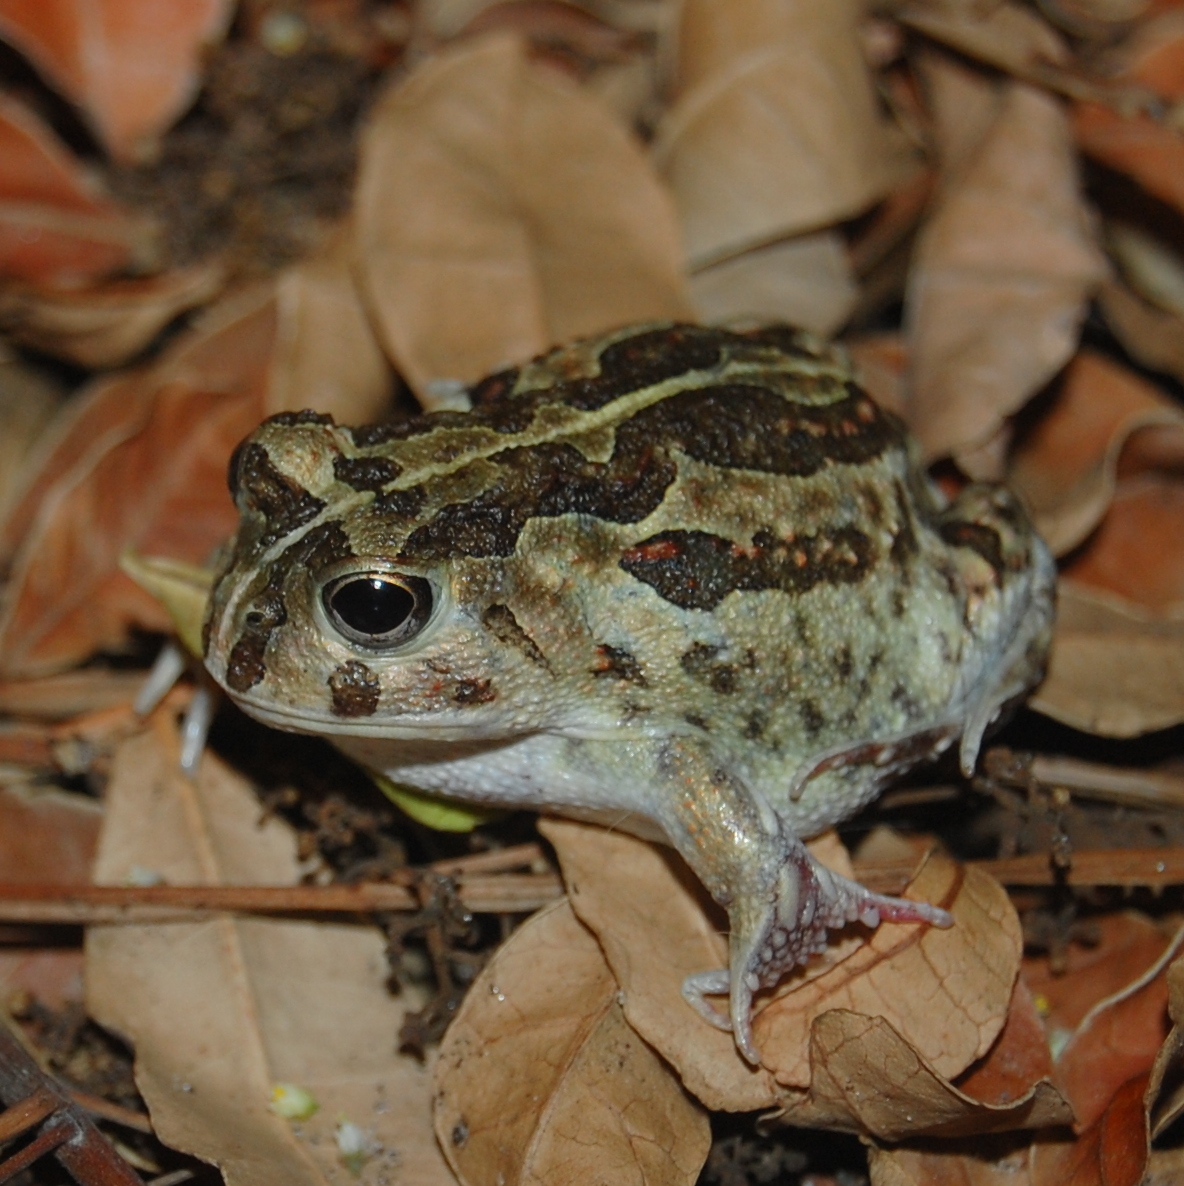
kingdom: Animalia
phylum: Chordata
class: Amphibia
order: Anura
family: Odontophrynidae
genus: Odontophrynus
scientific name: Odontophrynus
